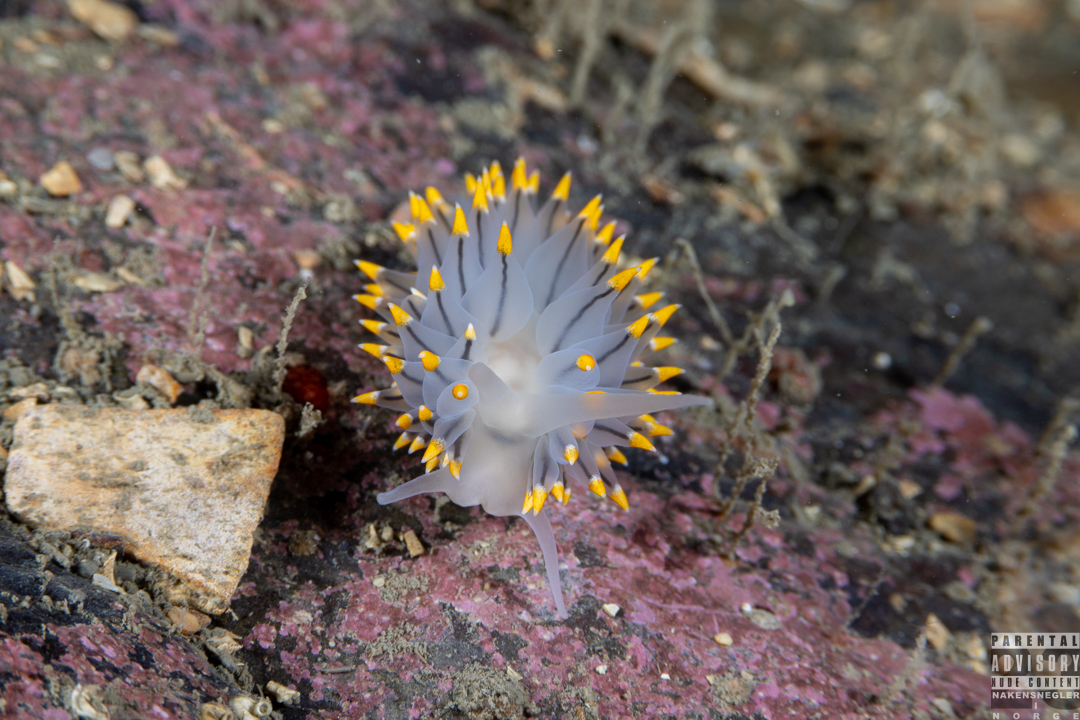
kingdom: Animalia
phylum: Mollusca
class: Gastropoda
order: Nudibranchia
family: Eubranchidae
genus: Eubranchus
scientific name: Eubranchus tricolor
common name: Painted balloon aeolis
